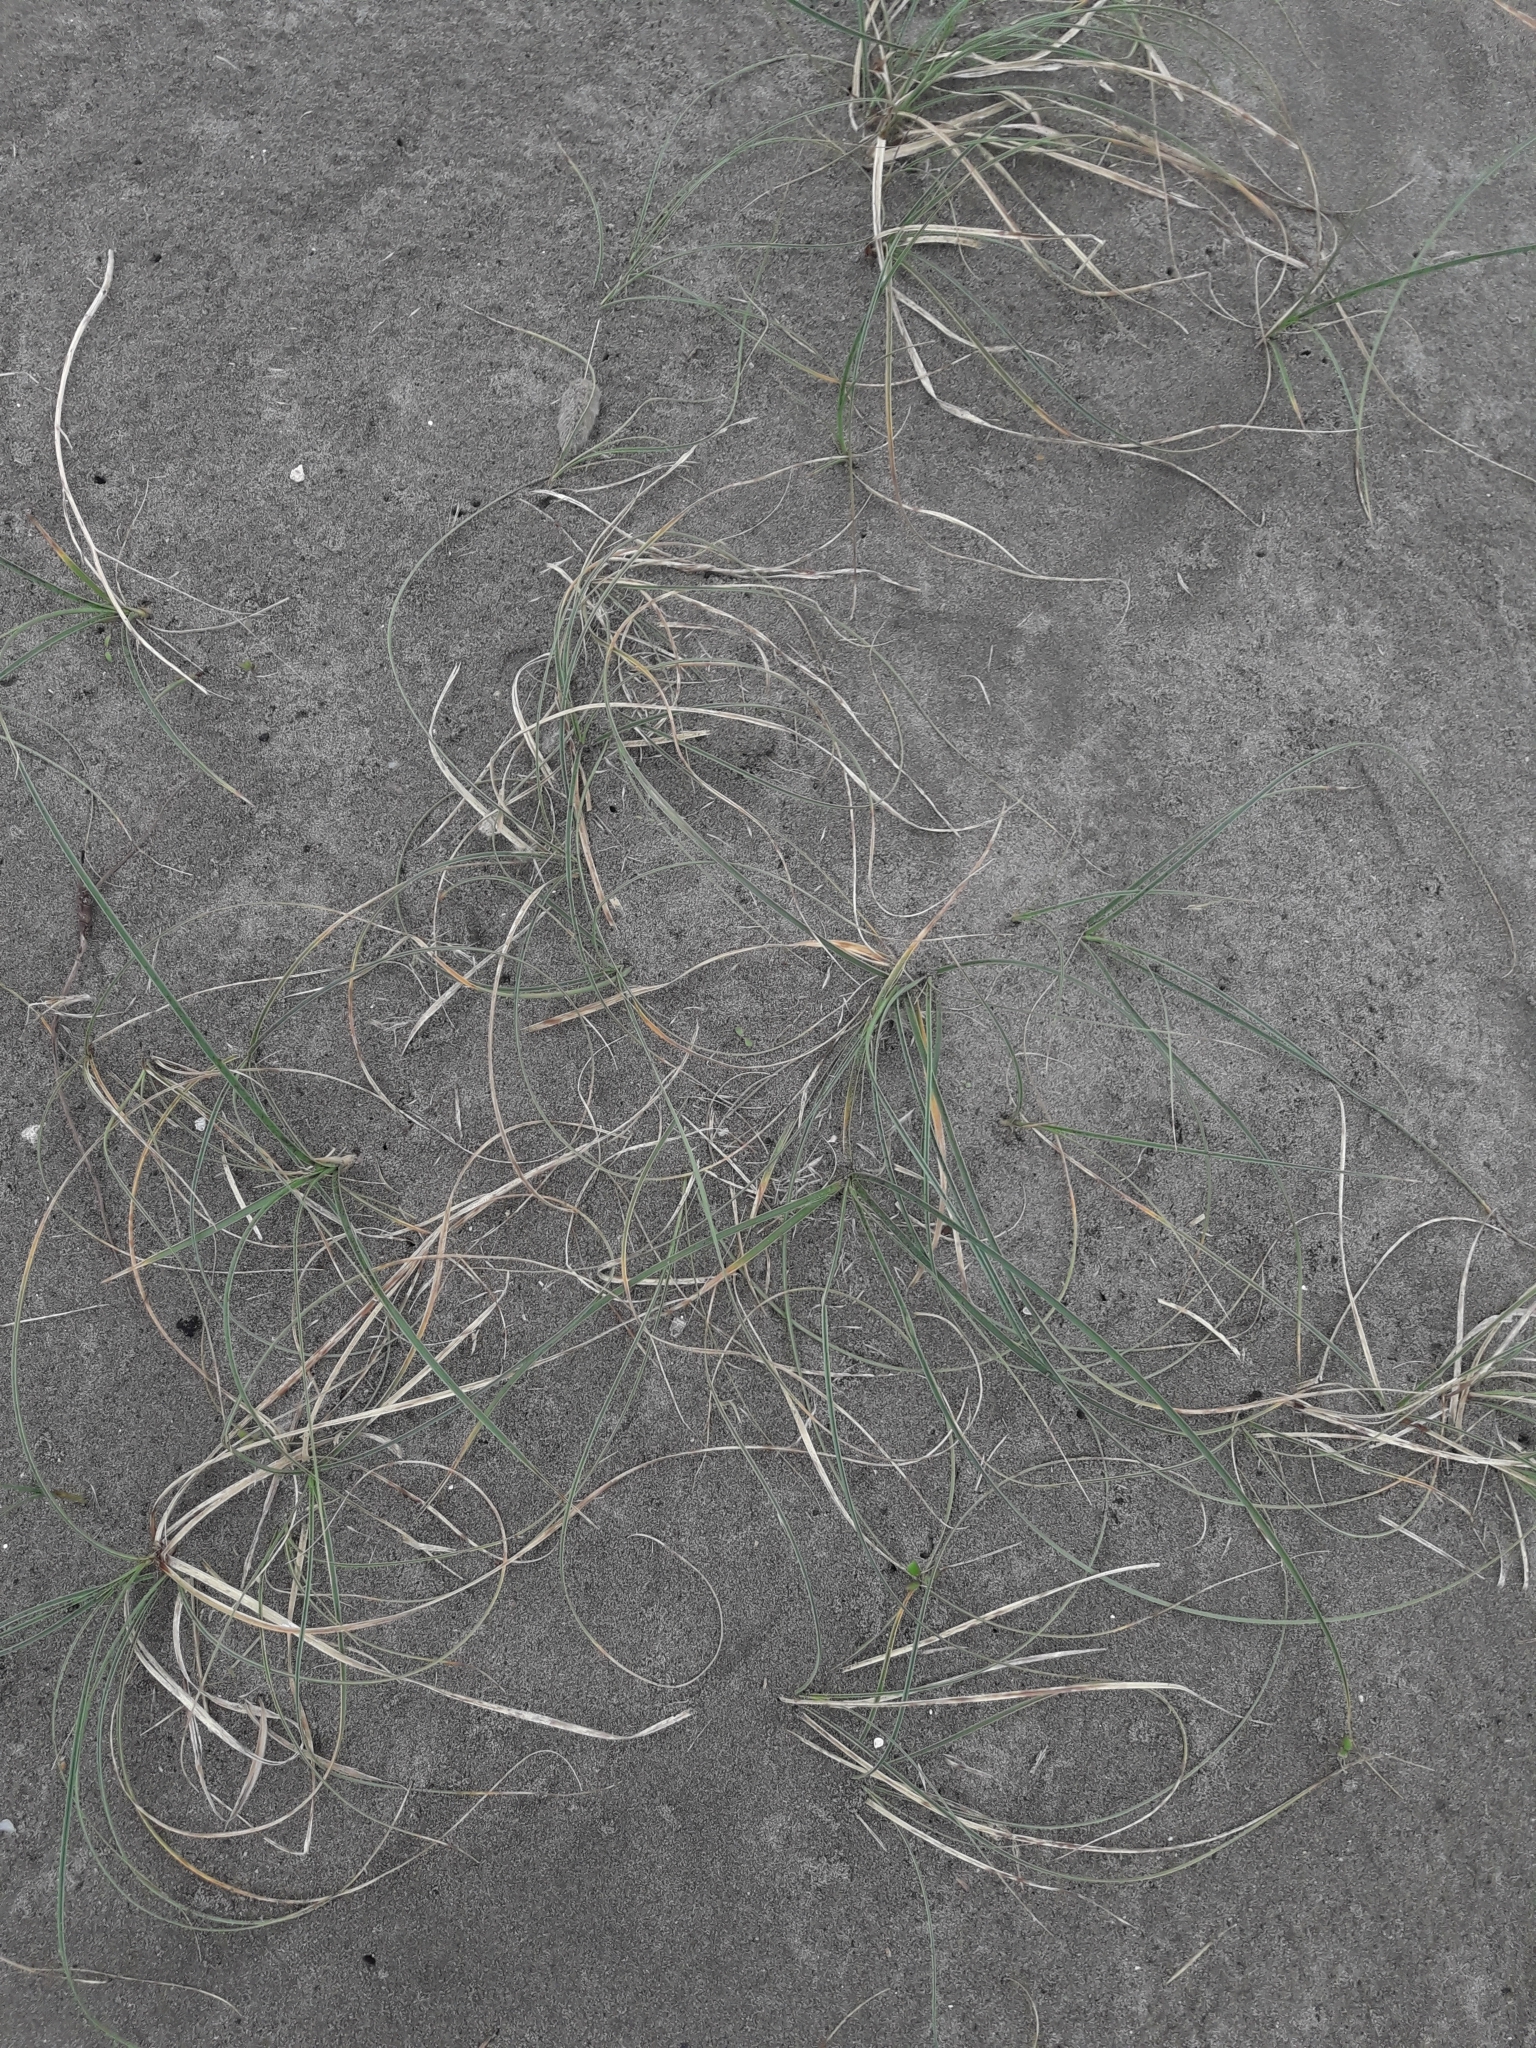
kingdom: Plantae
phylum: Tracheophyta
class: Liliopsida
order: Poales
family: Cyperaceae
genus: Carex
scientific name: Carex pumila
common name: Dwarf sedge
